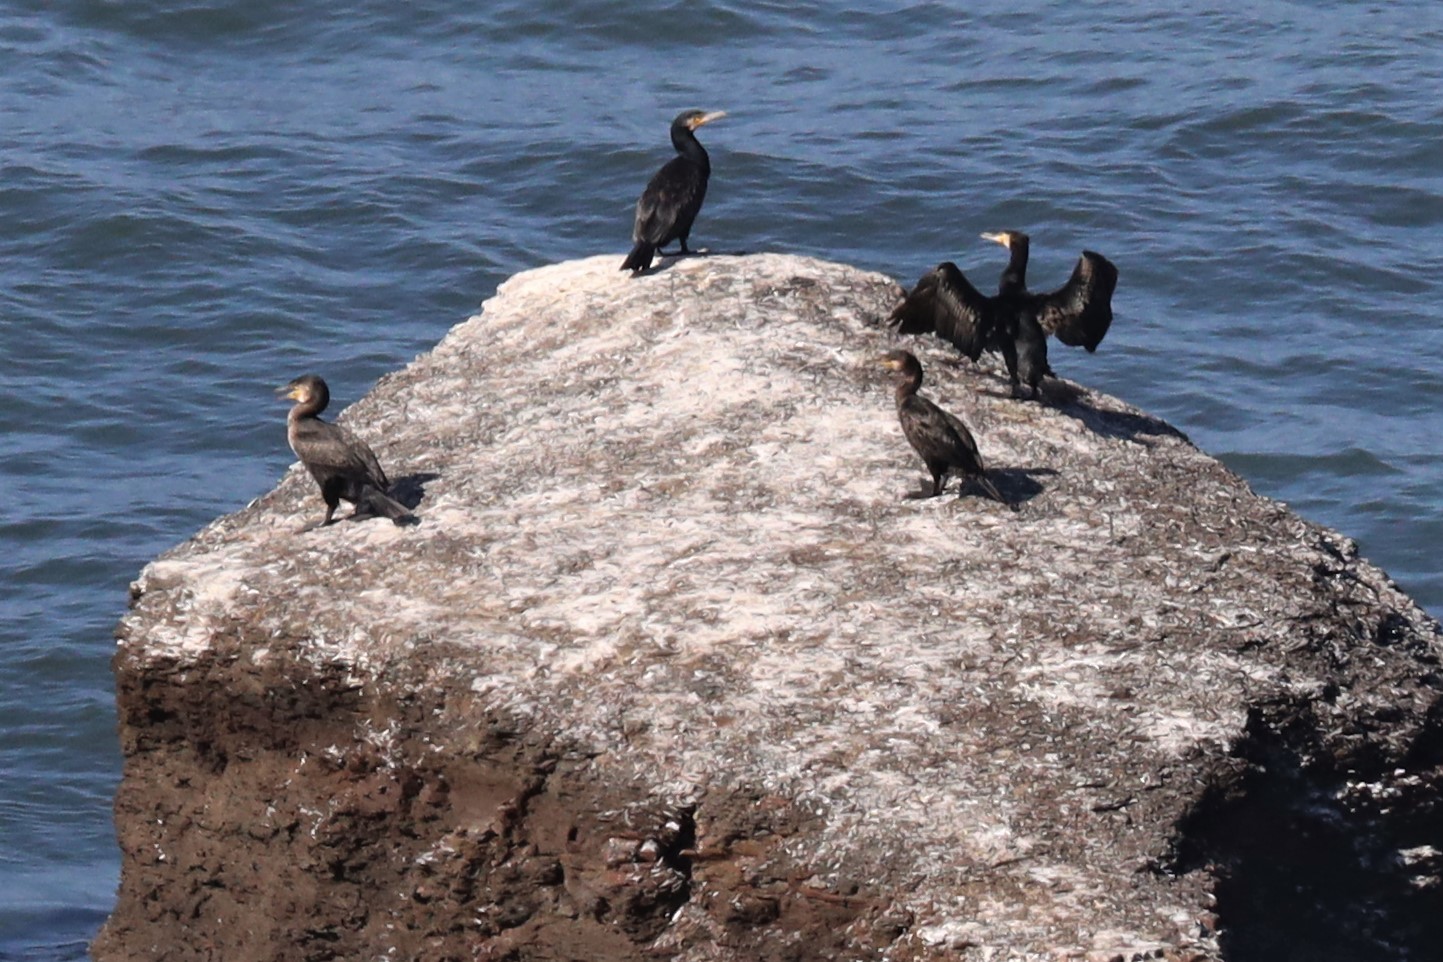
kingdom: Animalia
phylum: Chordata
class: Aves
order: Suliformes
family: Phalacrocoracidae
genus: Phalacrocorax
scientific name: Phalacrocorax carbo
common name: Great cormorant
